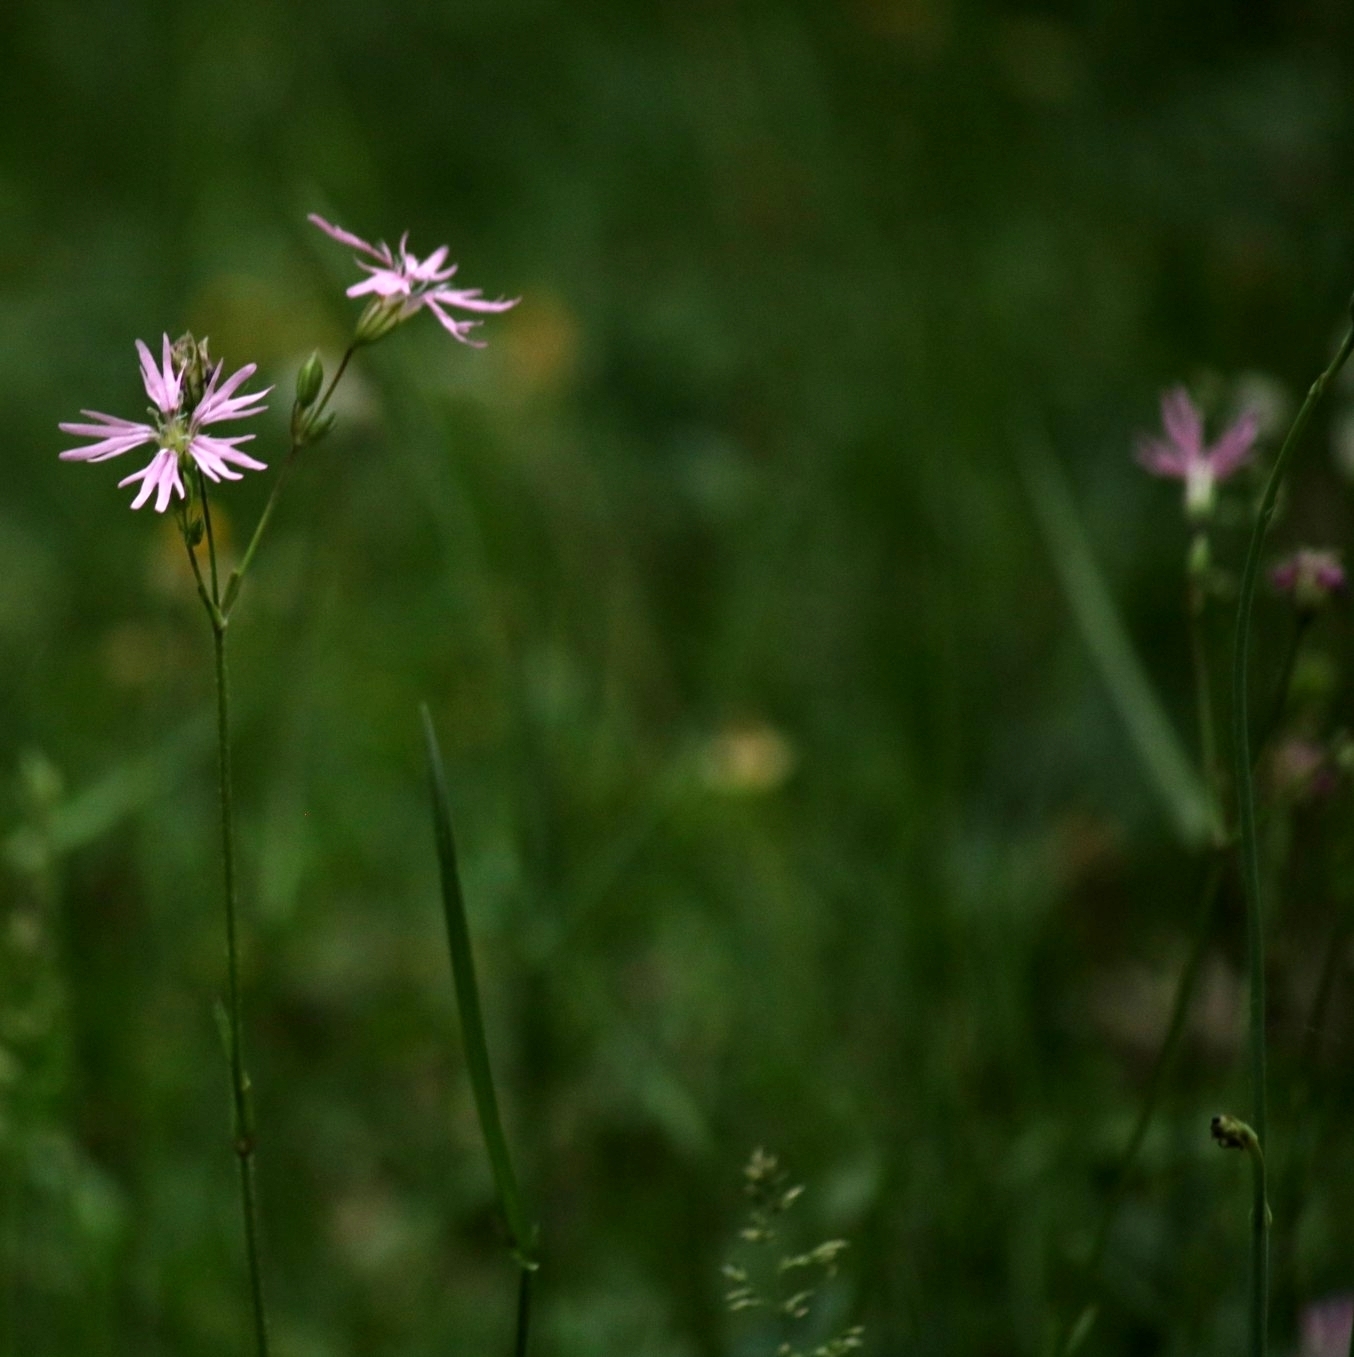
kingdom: Plantae
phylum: Tracheophyta
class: Magnoliopsida
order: Caryophyllales
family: Caryophyllaceae
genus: Silene
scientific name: Silene flos-cuculi
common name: Ragged-robin
